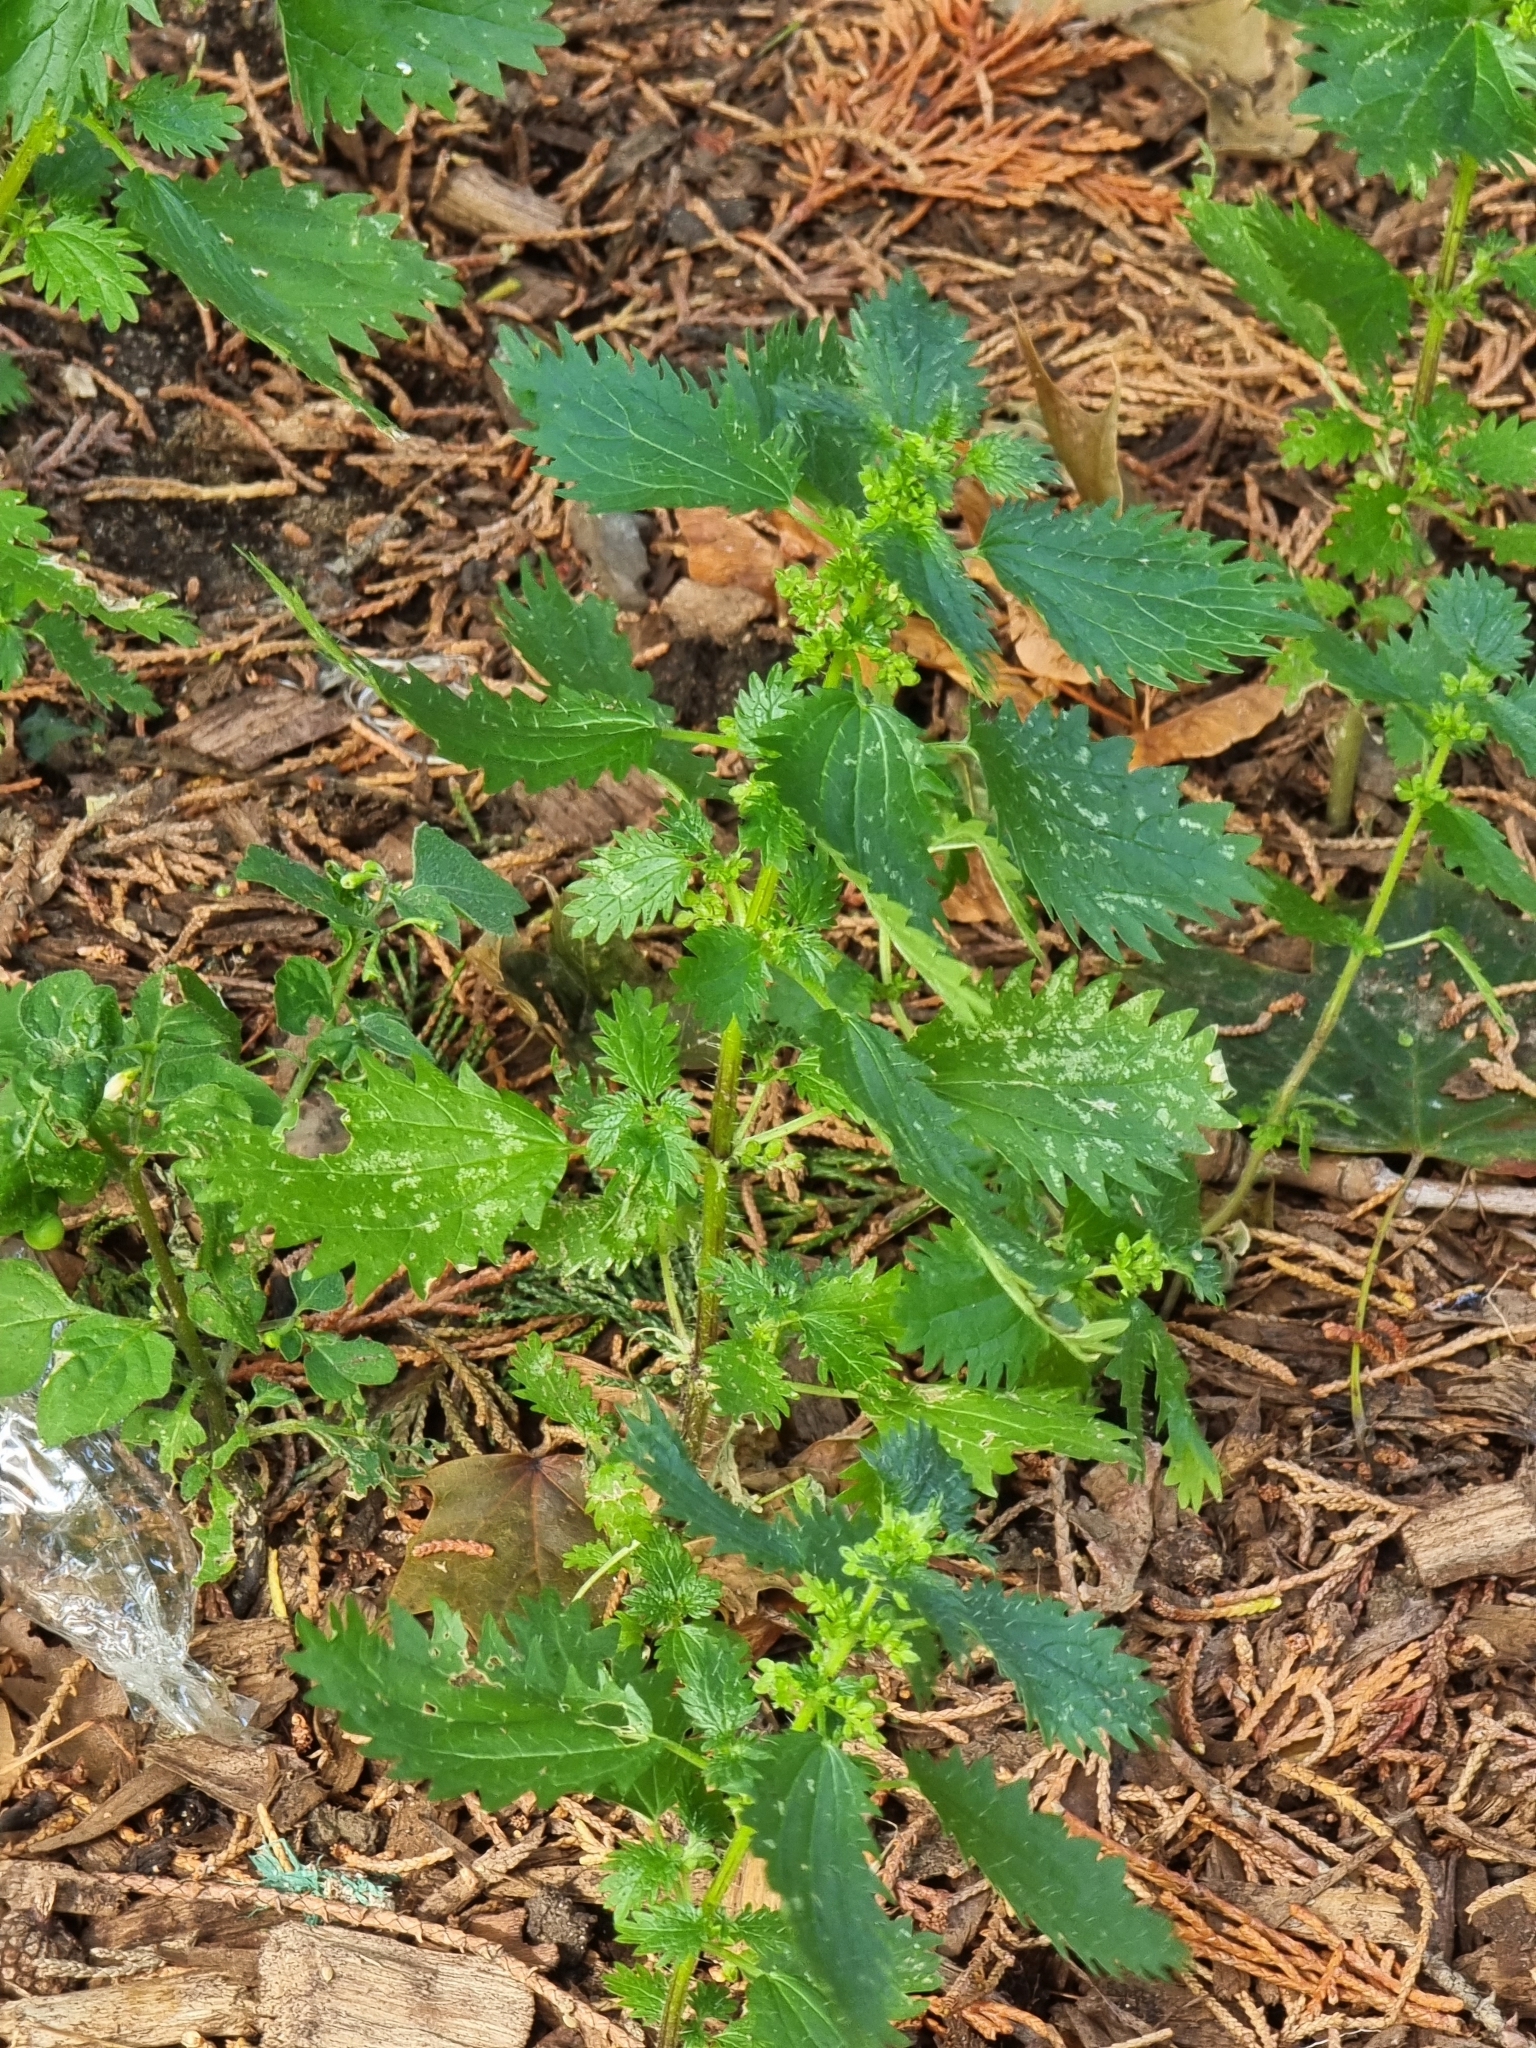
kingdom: Plantae
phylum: Tracheophyta
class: Magnoliopsida
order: Rosales
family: Urticaceae
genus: Urtica
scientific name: Urtica urens
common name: Dwarf nettle
